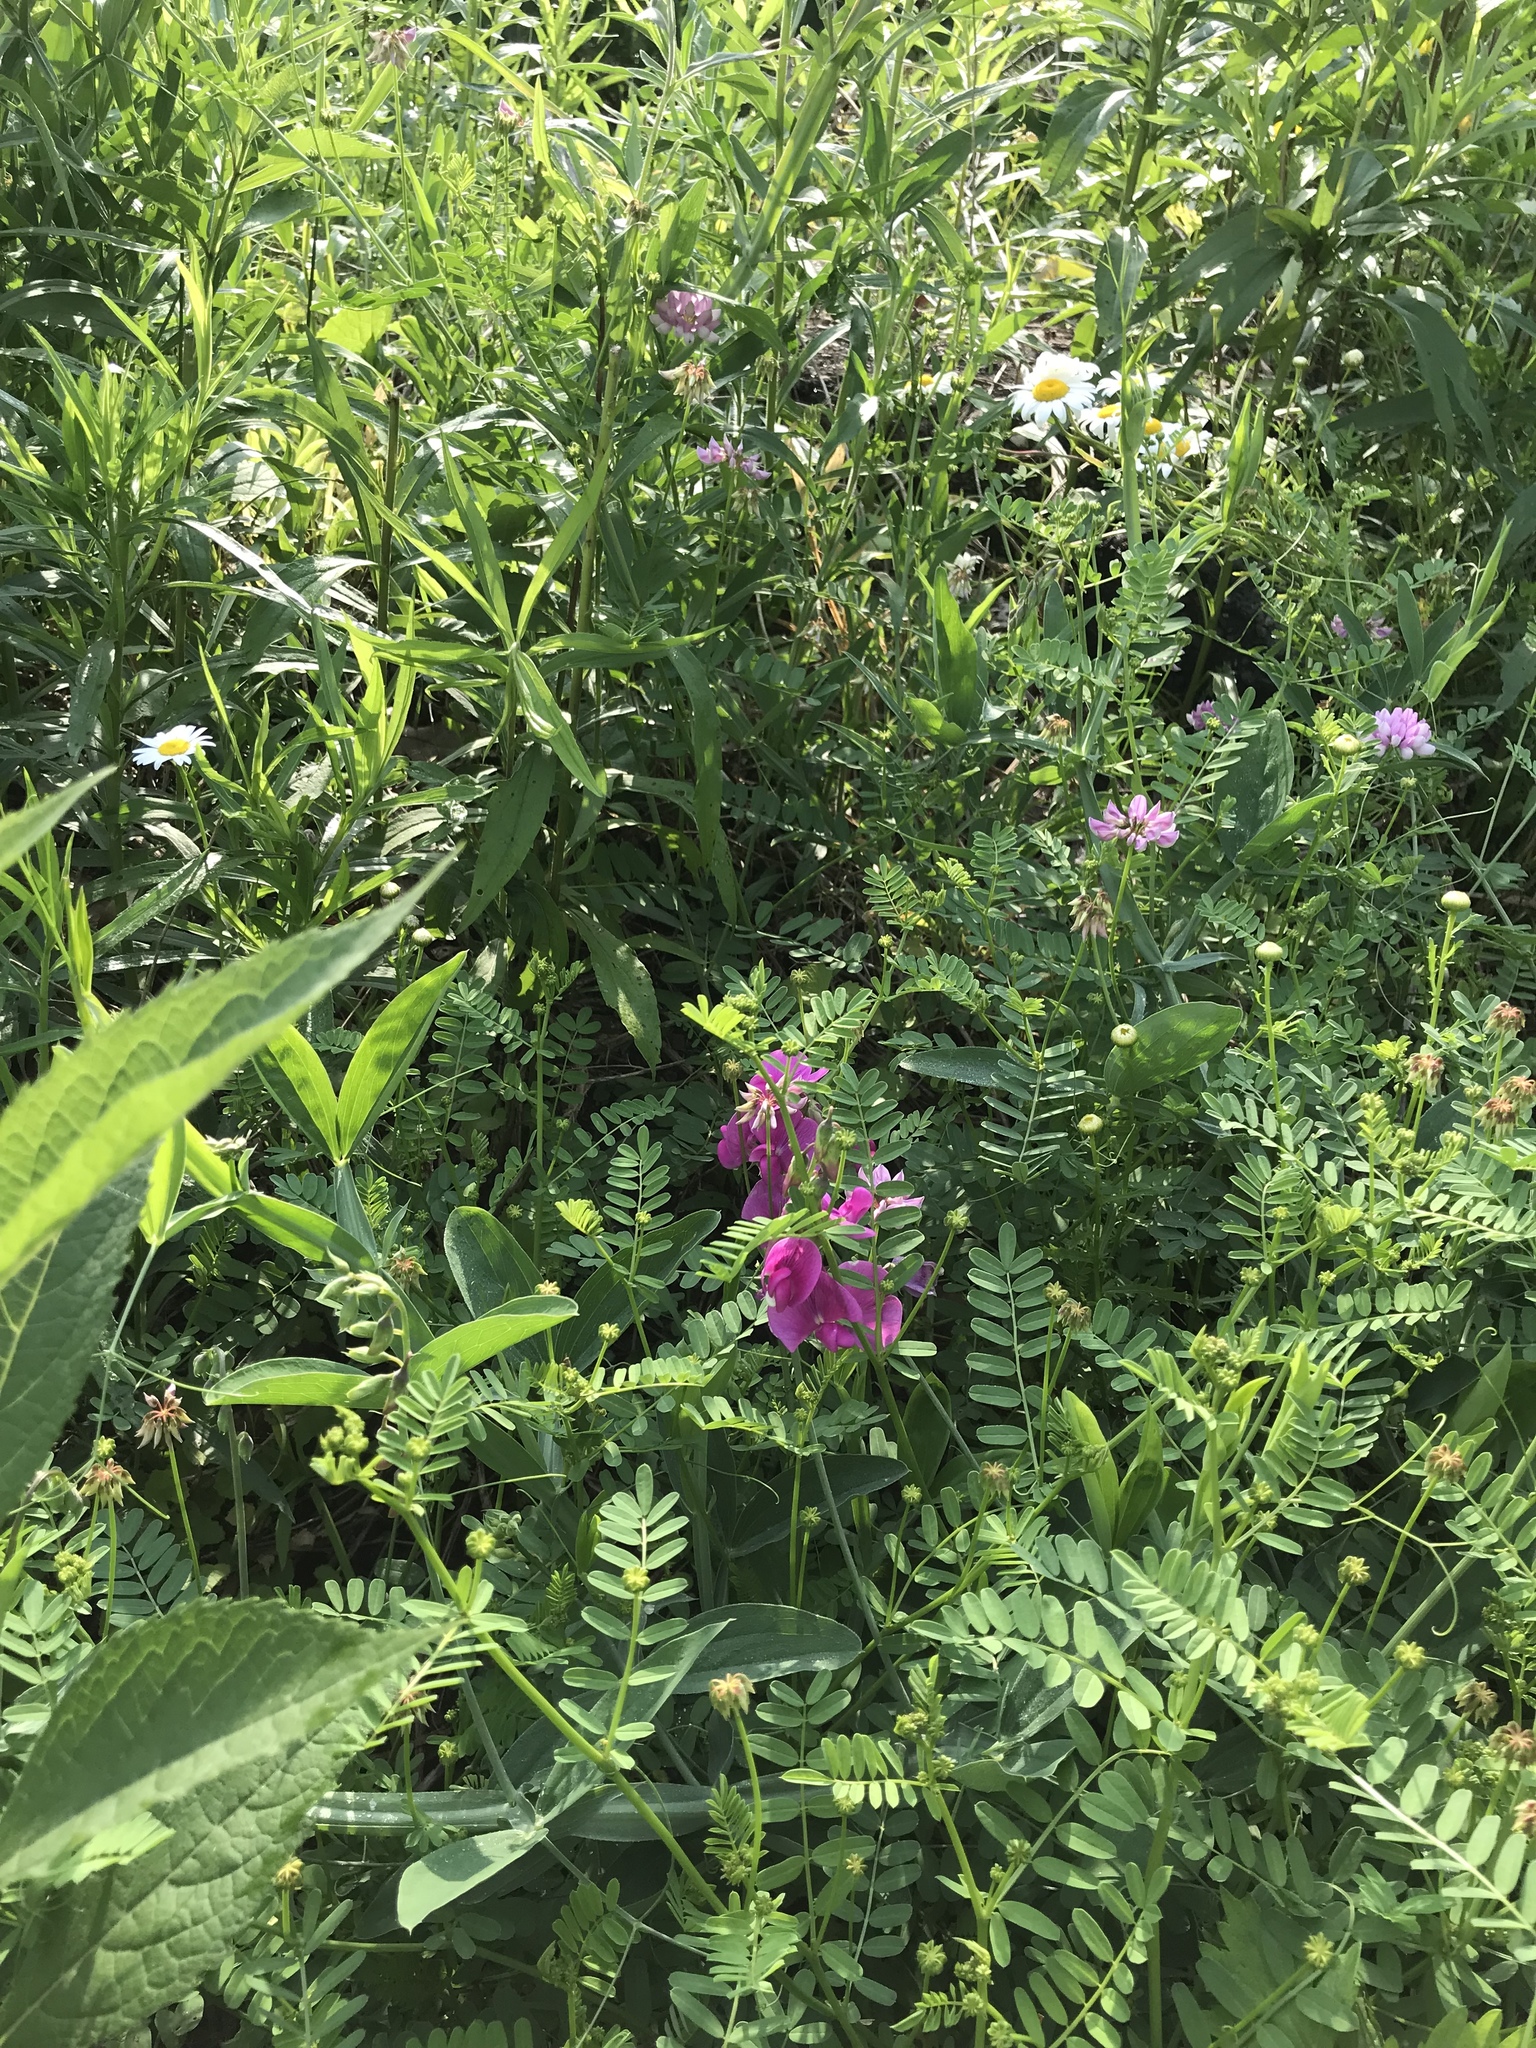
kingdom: Plantae
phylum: Tracheophyta
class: Magnoliopsida
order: Fabales
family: Fabaceae
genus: Lathyrus
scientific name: Lathyrus latifolius
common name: Perennial pea
